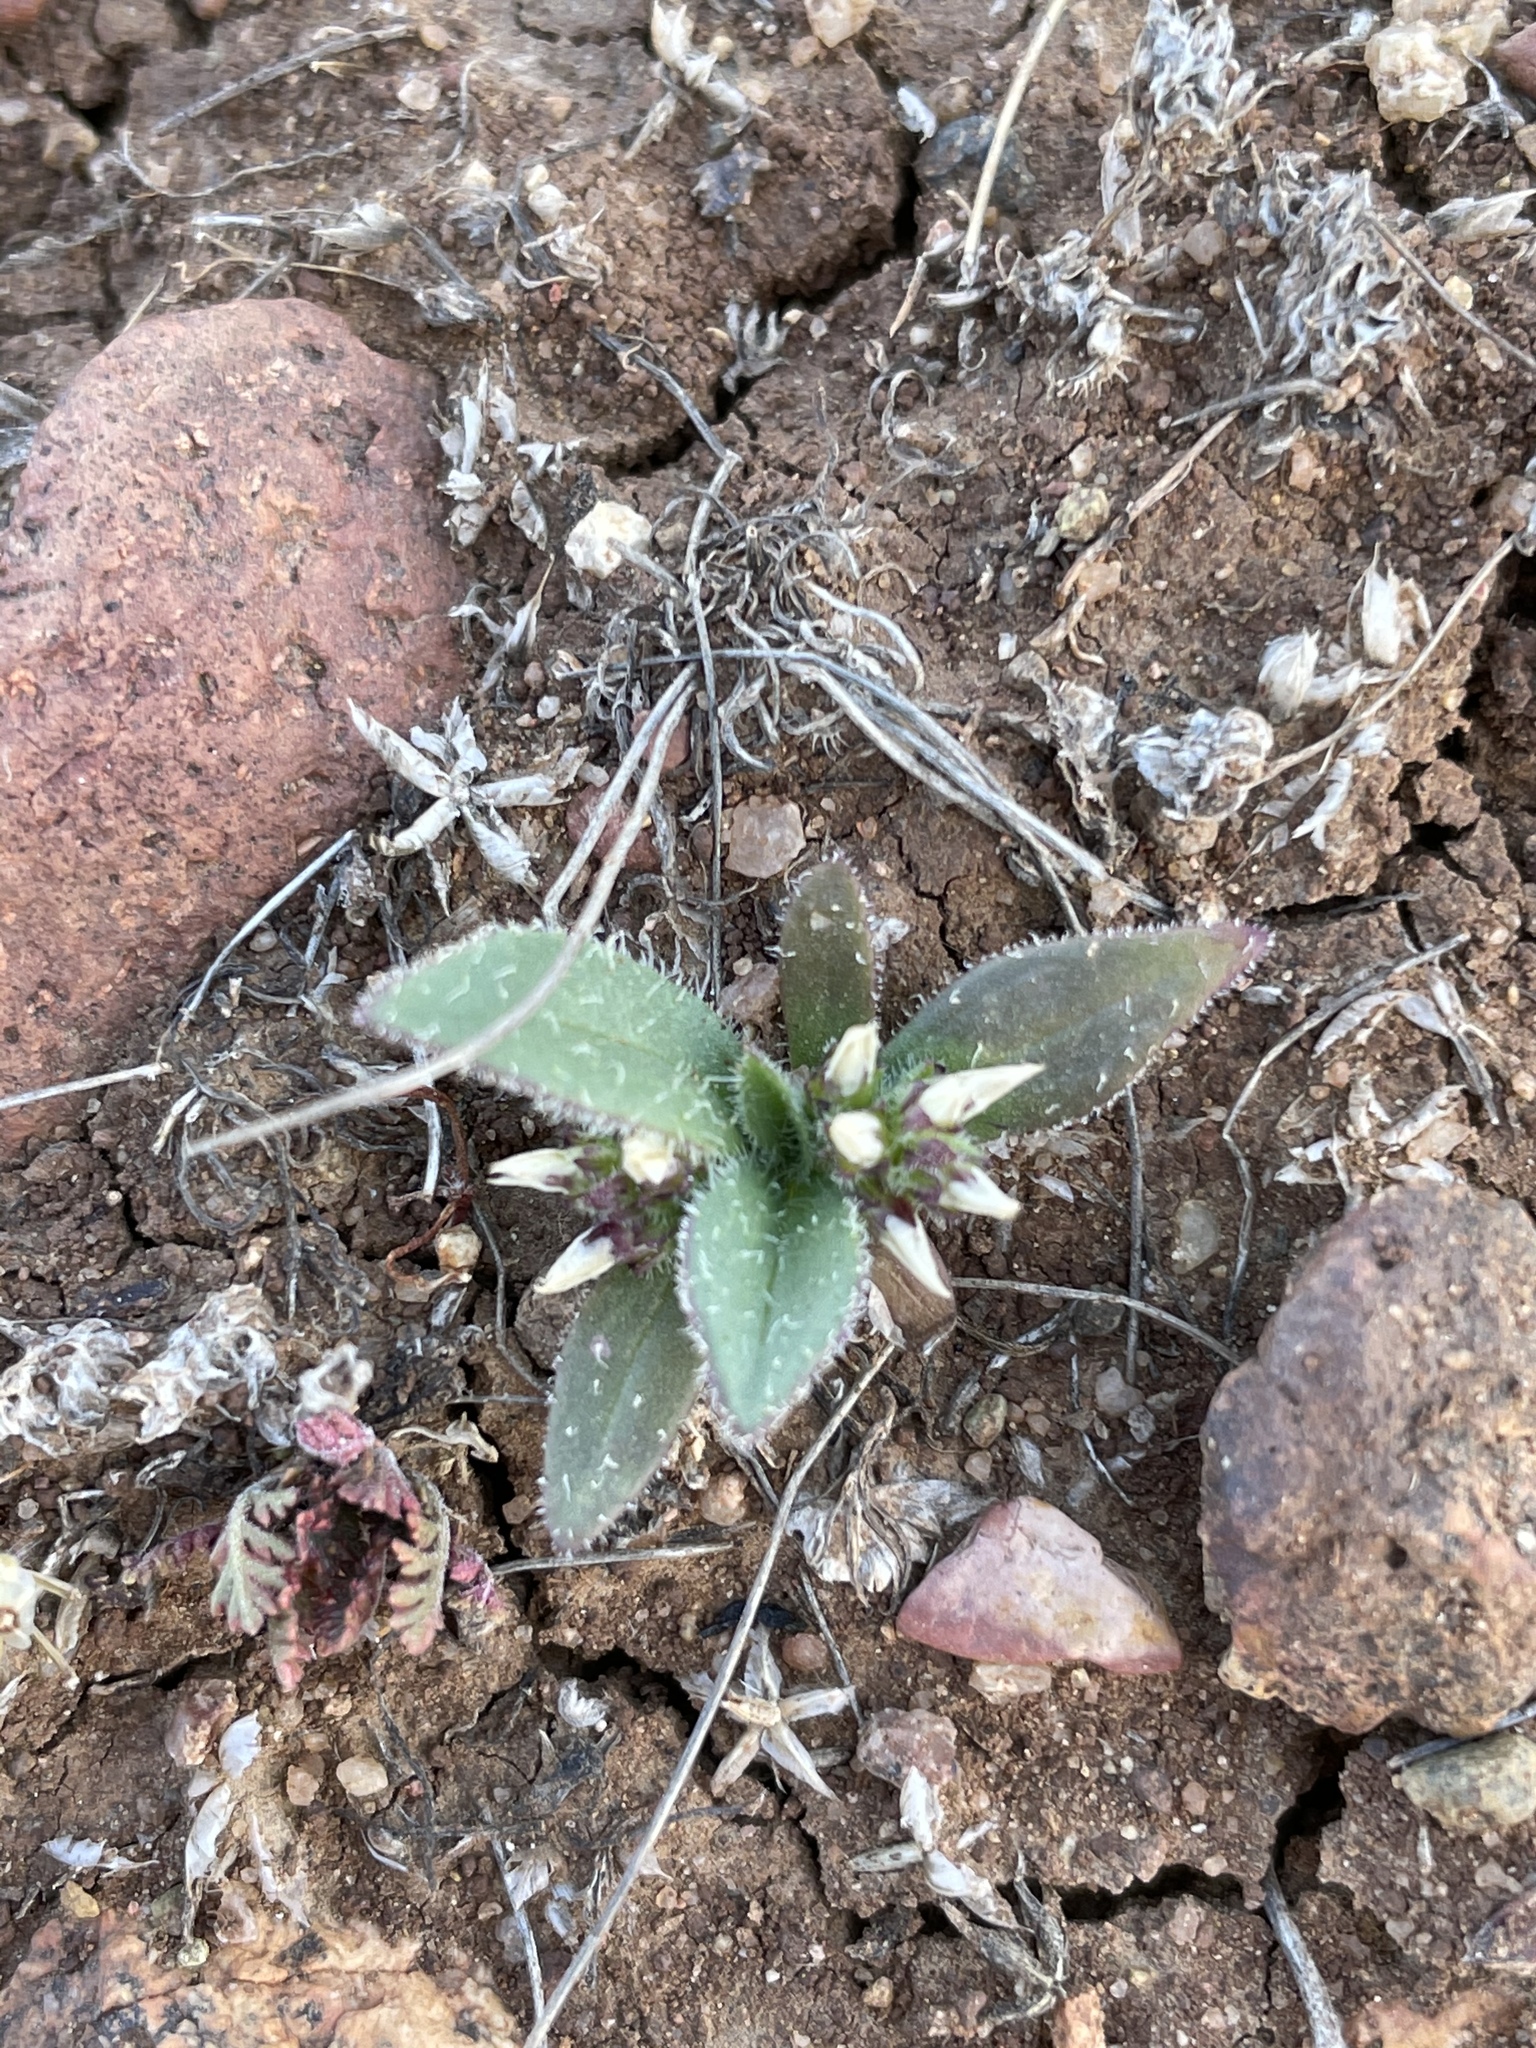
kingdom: Plantae
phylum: Tracheophyta
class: Magnoliopsida
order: Lamiales
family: Plantaginaceae
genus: Plantago
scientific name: Plantago rhodosperma
